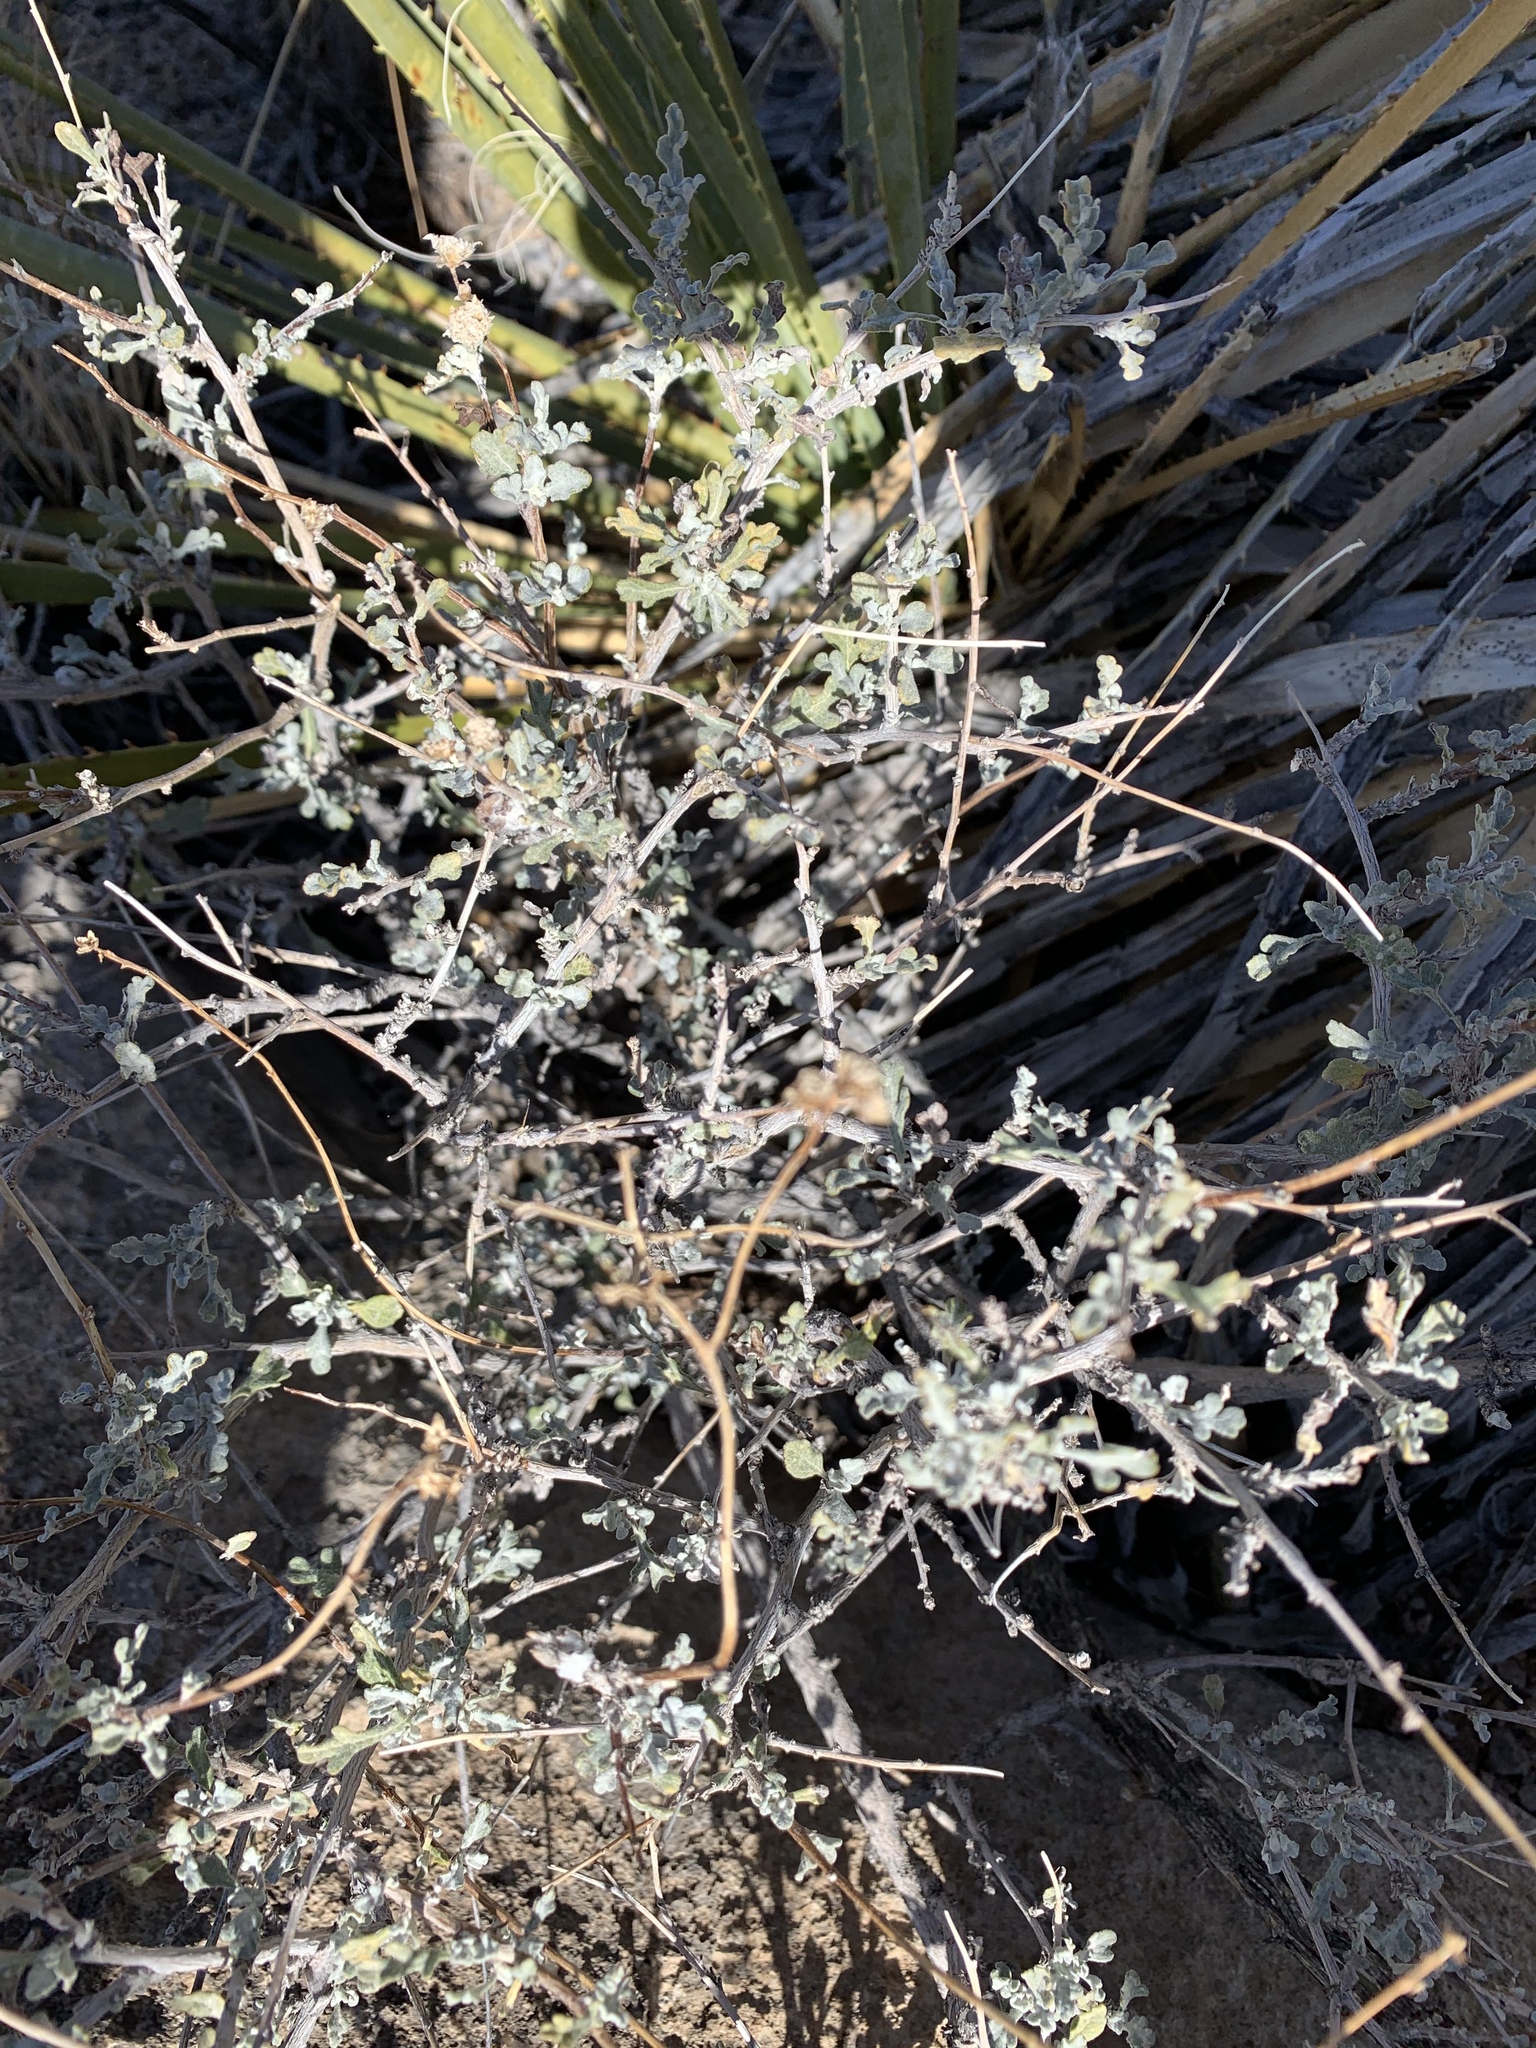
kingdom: Plantae
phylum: Tracheophyta
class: Magnoliopsida
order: Asterales
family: Asteraceae
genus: Parthenium
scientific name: Parthenium incanum
